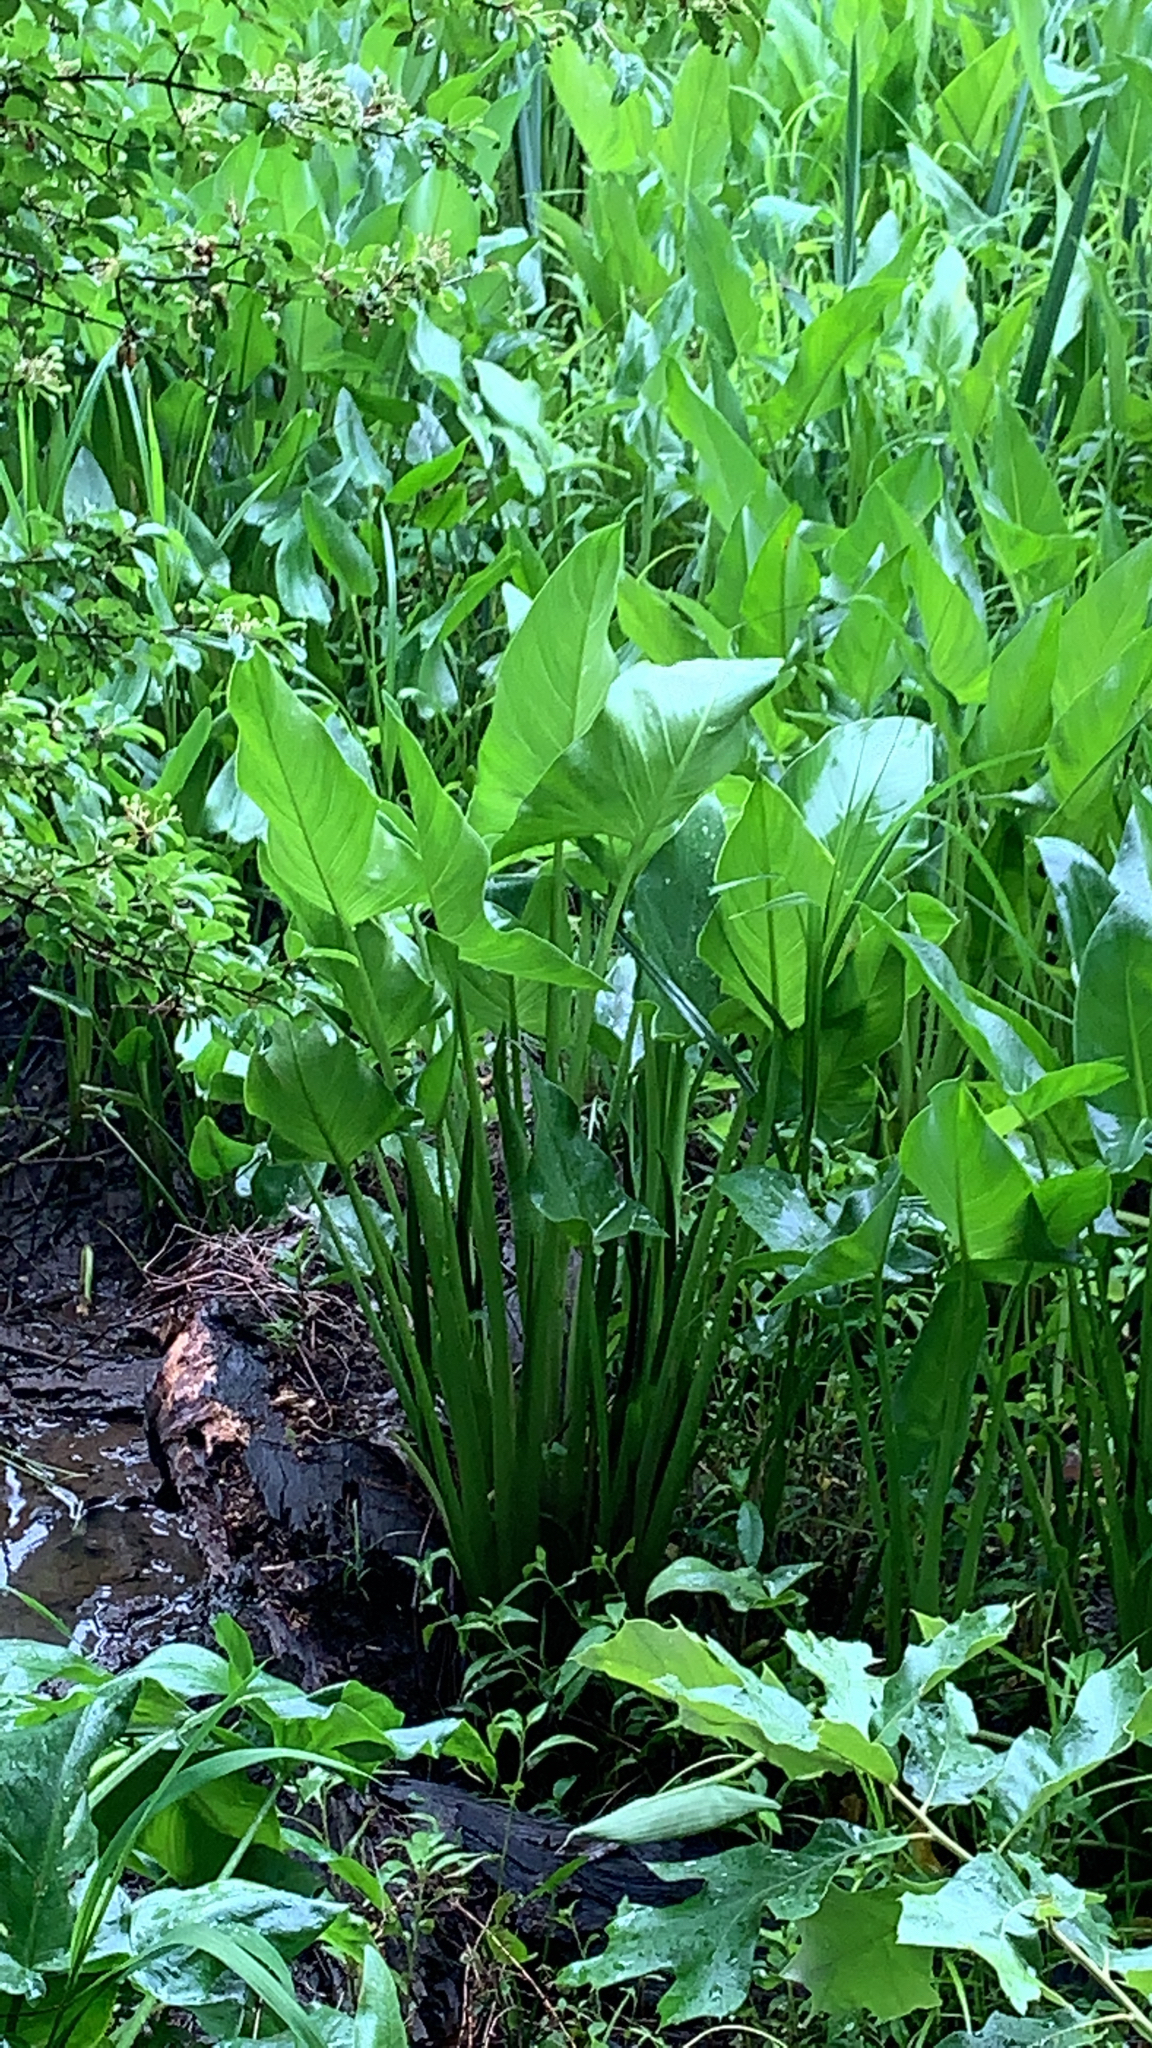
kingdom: Plantae
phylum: Tracheophyta
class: Liliopsida
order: Alismatales
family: Araceae
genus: Peltandra
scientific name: Peltandra virginica
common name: Arrow arum
